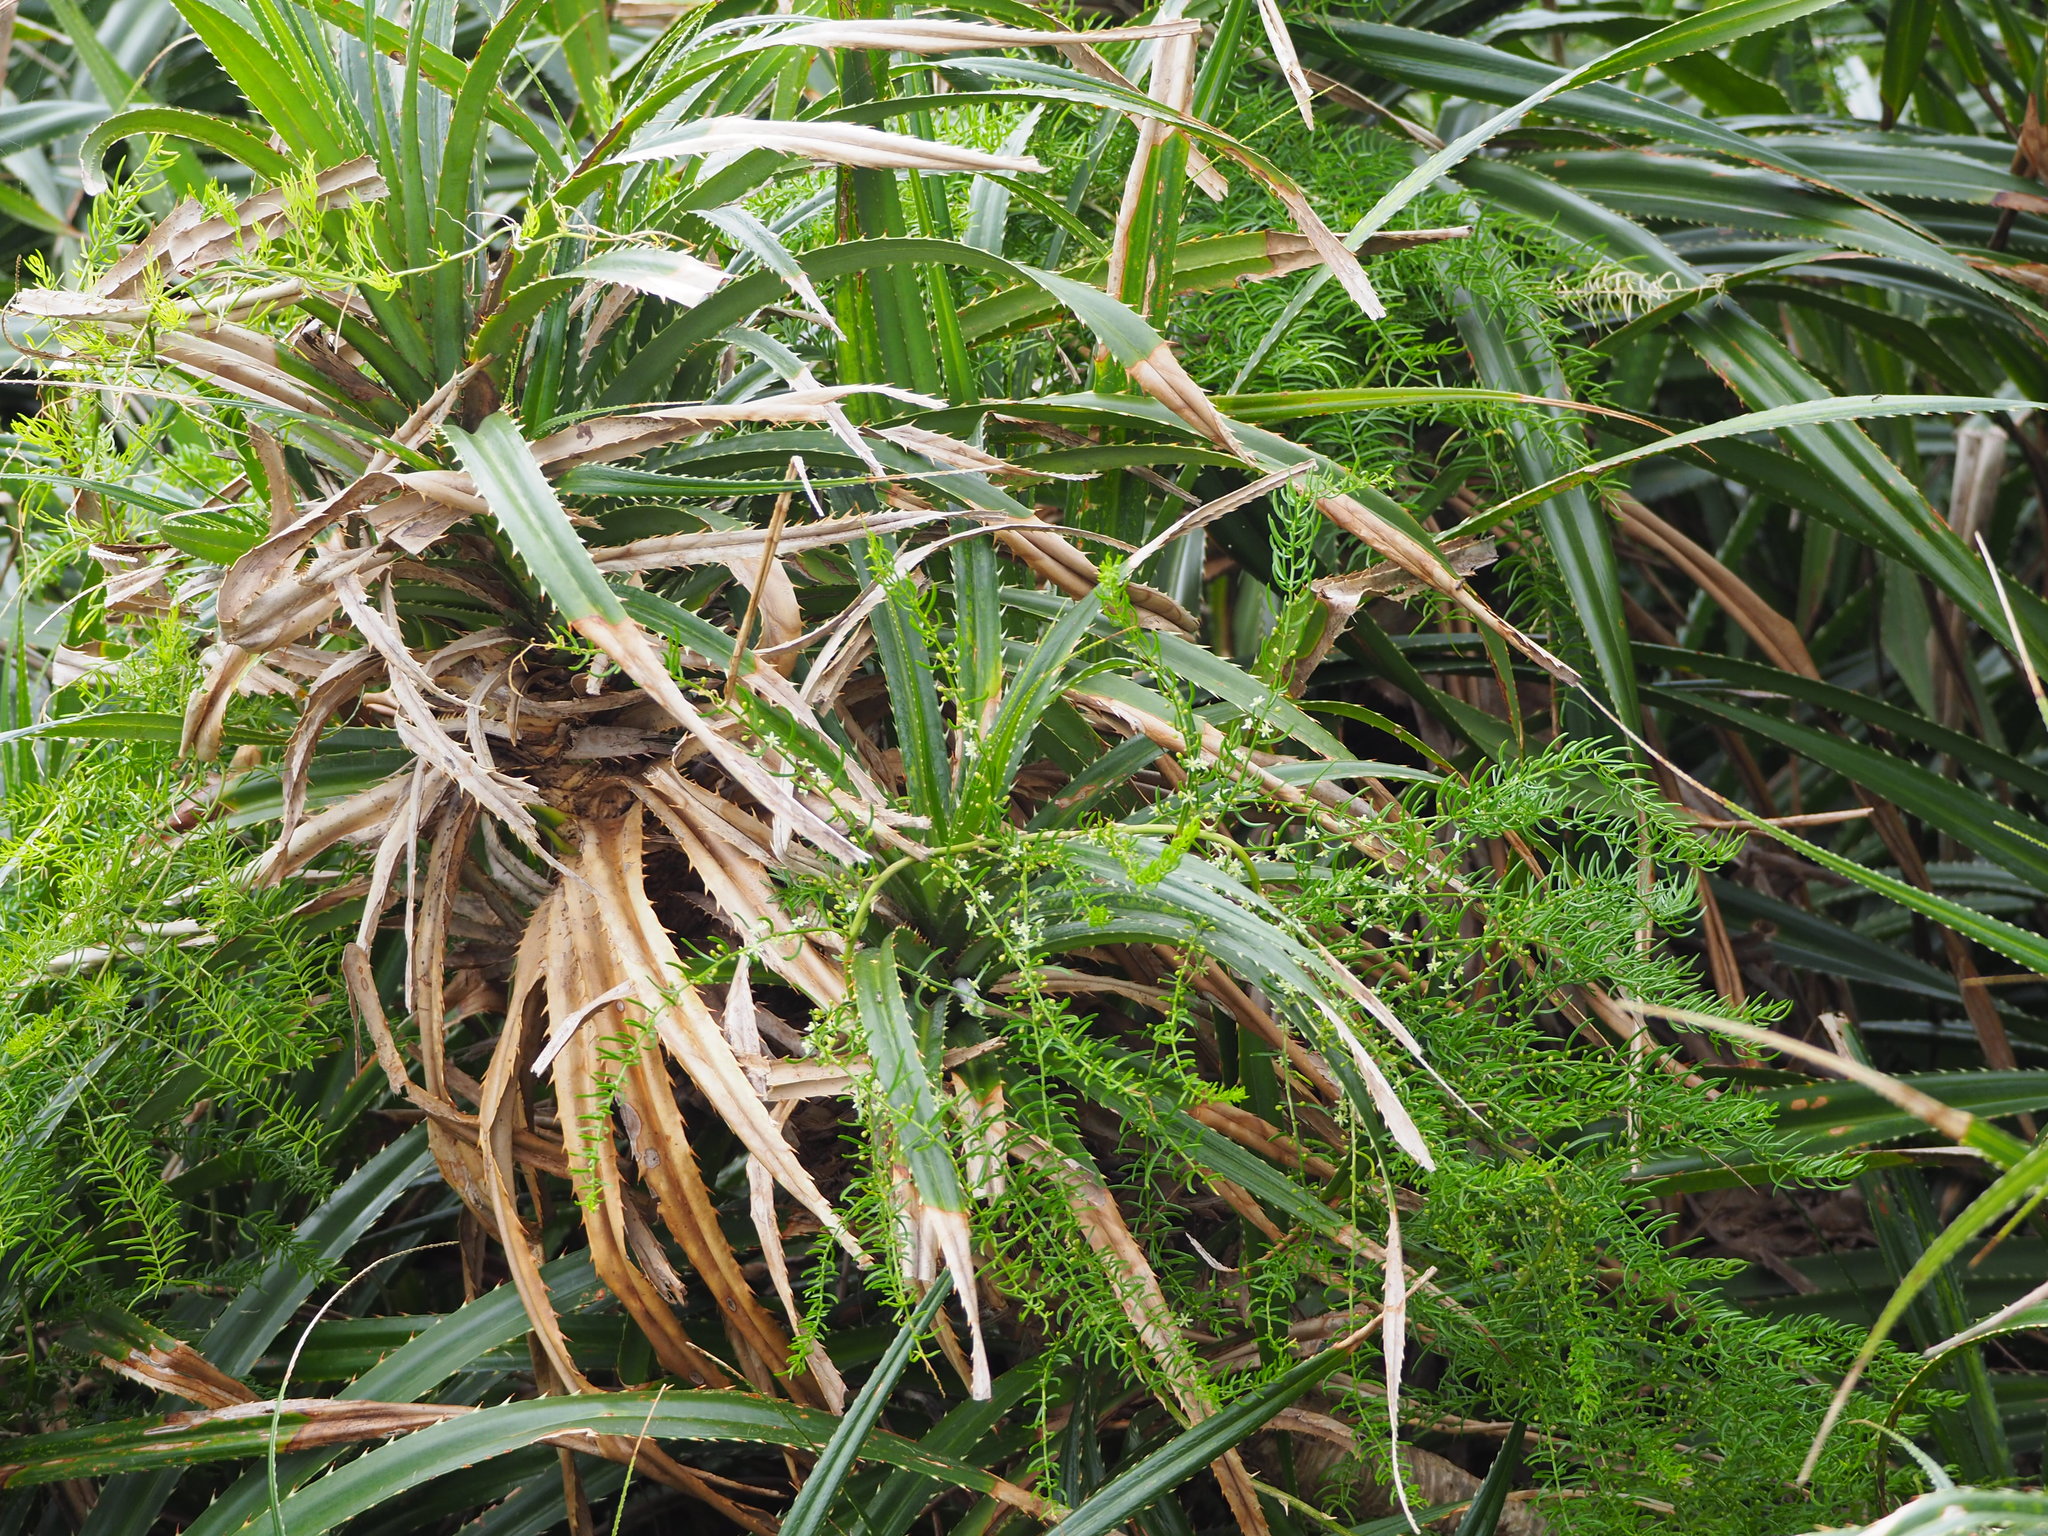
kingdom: Plantae
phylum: Tracheophyta
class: Liliopsida
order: Asparagales
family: Asparagaceae
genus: Asparagus
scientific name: Asparagus cochinchinensis
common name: Chinese asparagus
